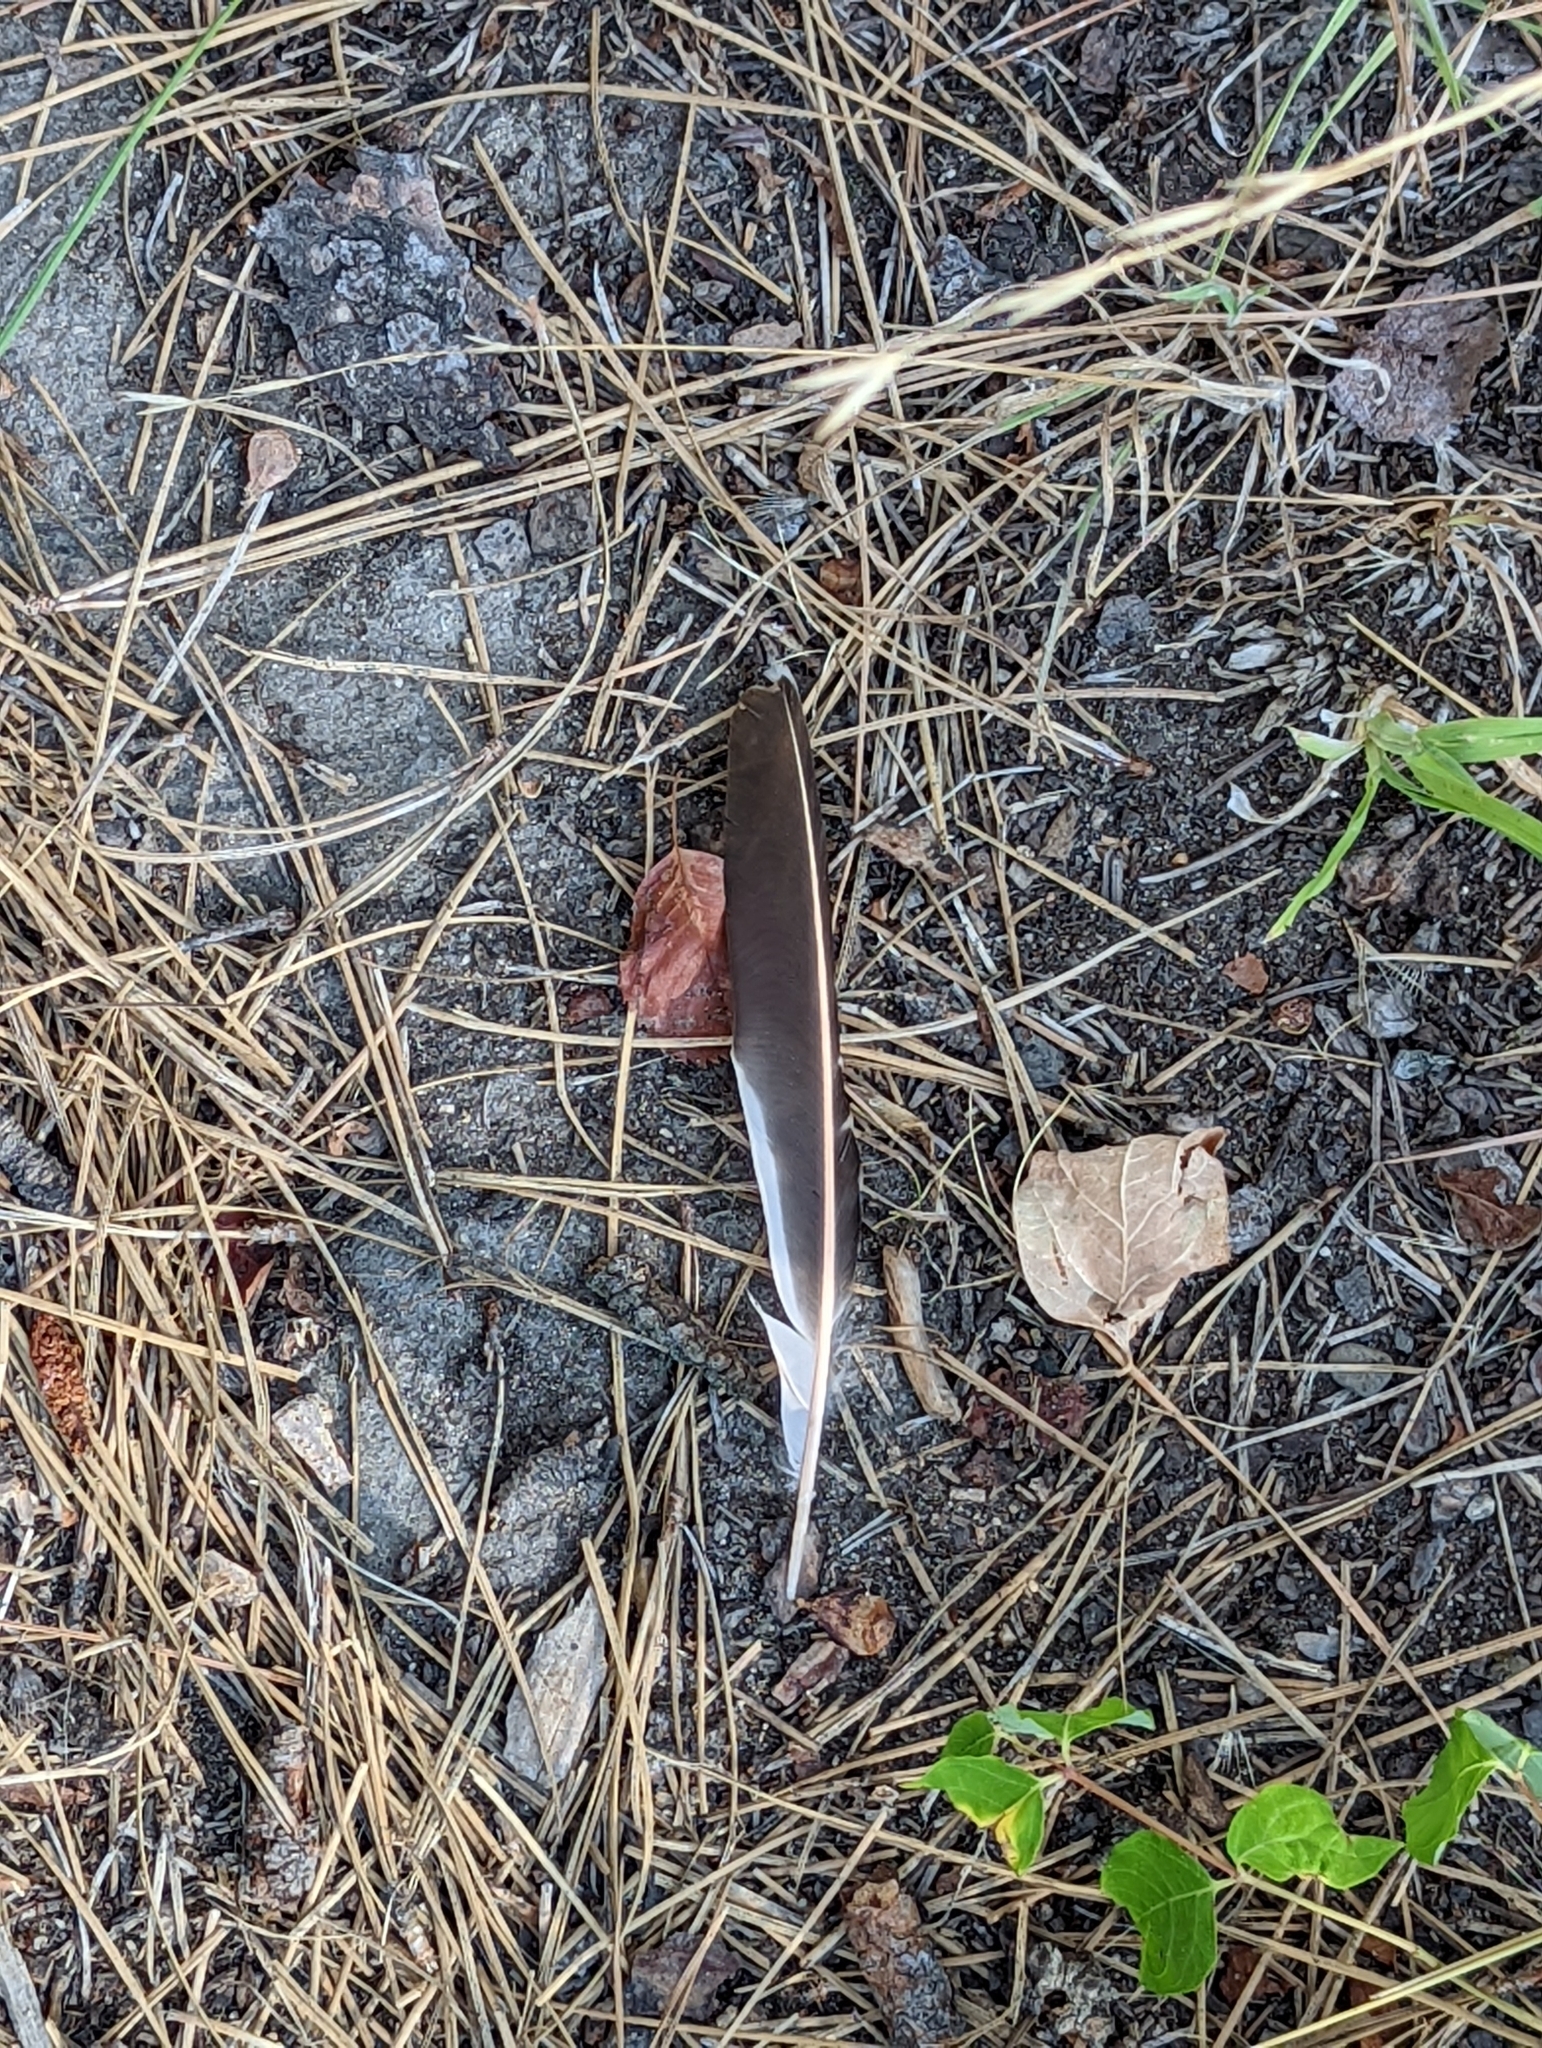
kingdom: Animalia
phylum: Chordata
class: Aves
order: Piciformes
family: Picidae
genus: Colaptes
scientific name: Colaptes auratus
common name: Northern flicker
